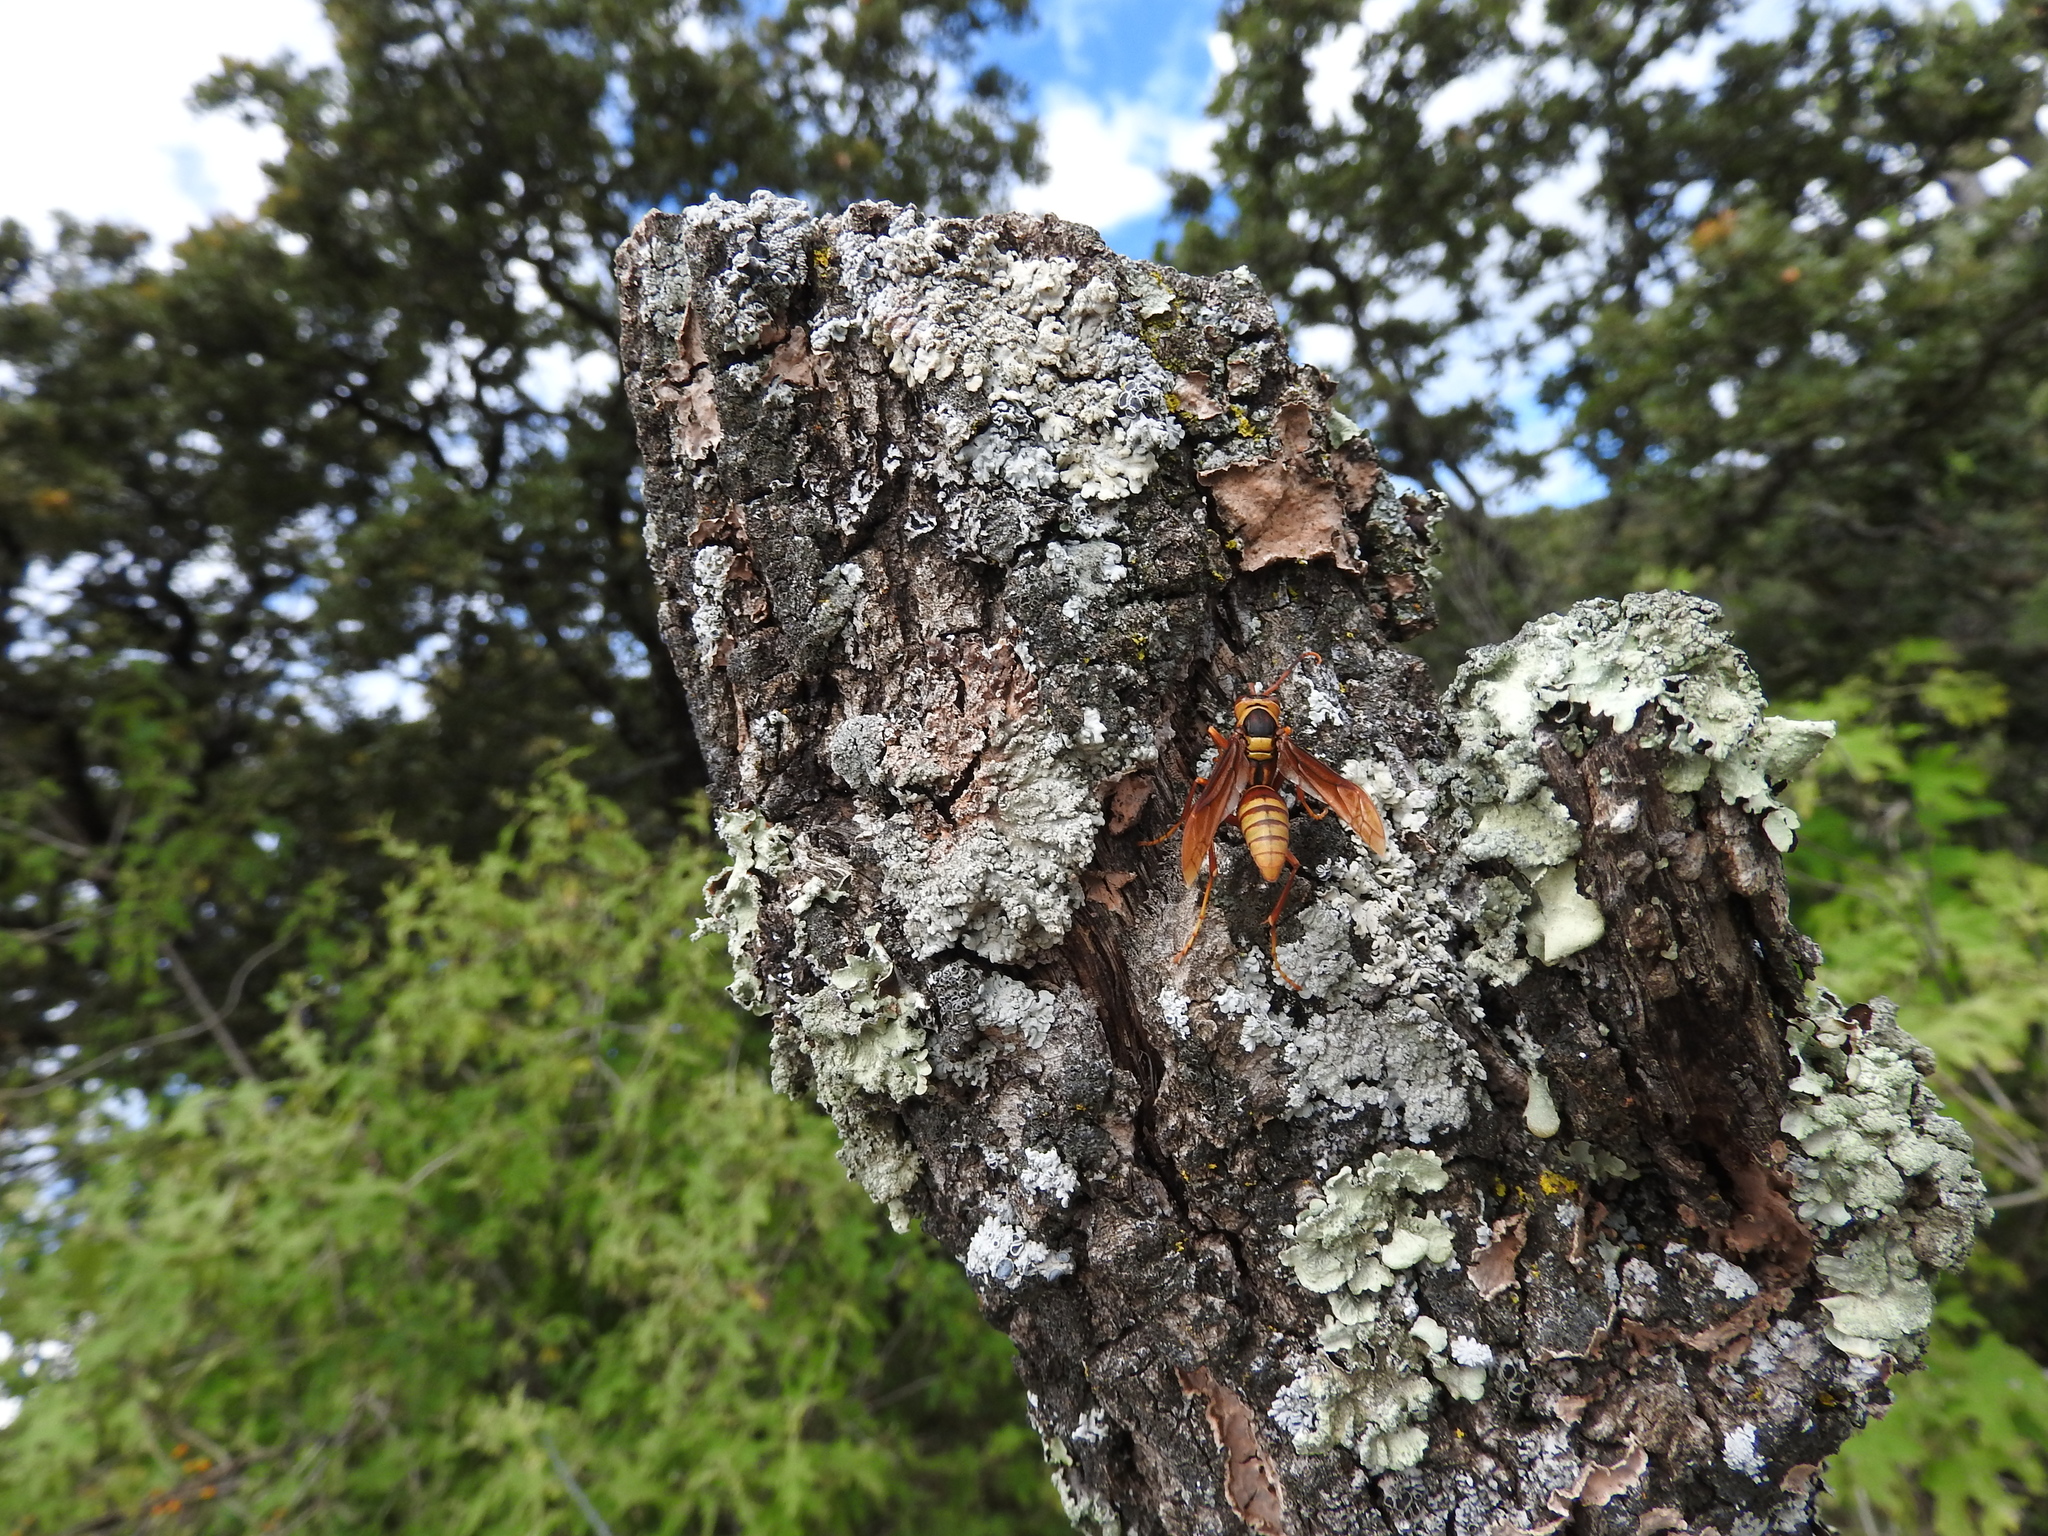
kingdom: Animalia
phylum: Arthropoda
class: Insecta
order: Hymenoptera
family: Eumenidae
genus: Polistes
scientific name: Polistes major
